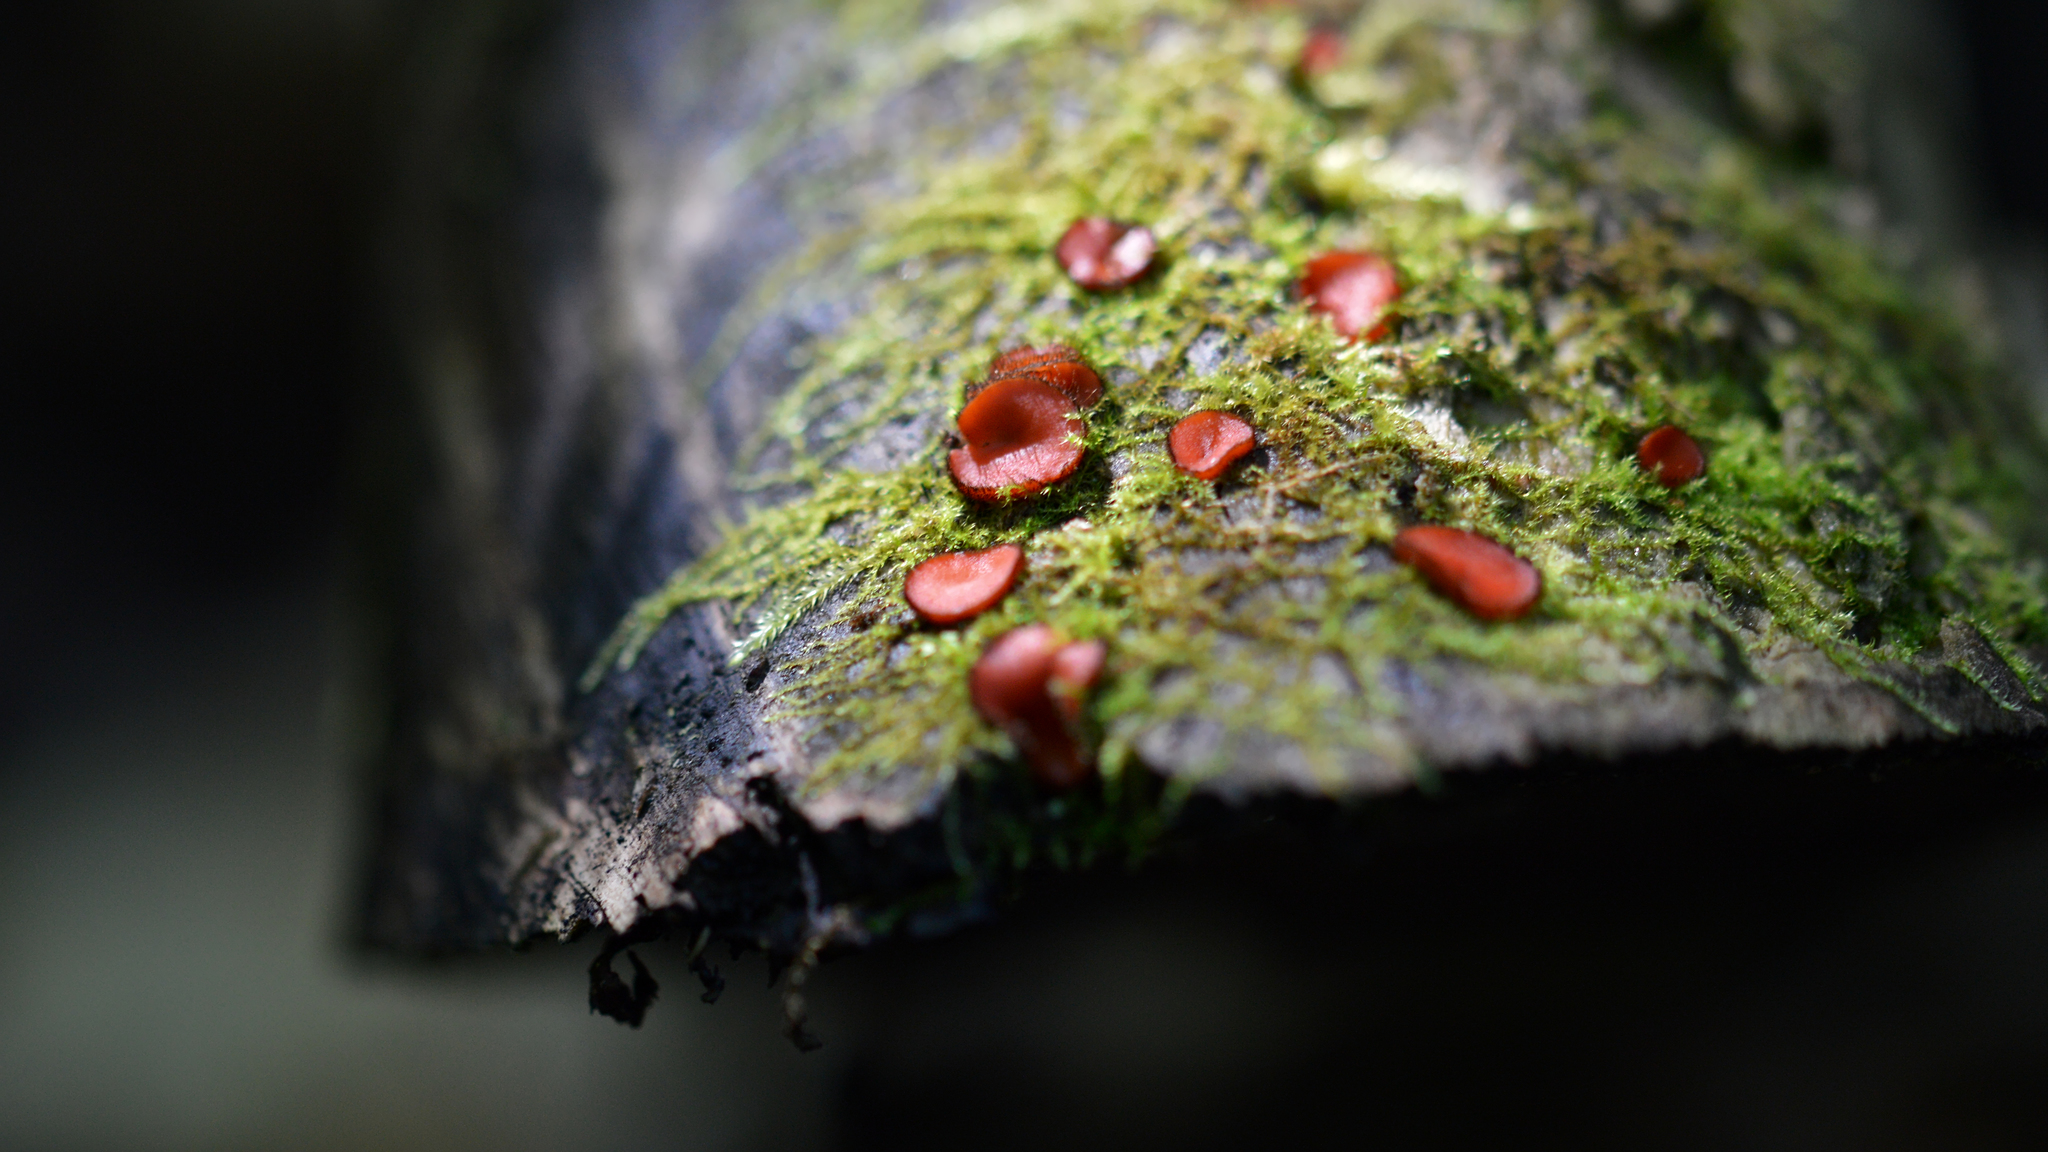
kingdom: Fungi
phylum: Ascomycota
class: Pezizomycetes
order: Pezizales
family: Pyronemataceae
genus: Scutellinia
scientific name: Scutellinia scutellata
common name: Common eyelash
